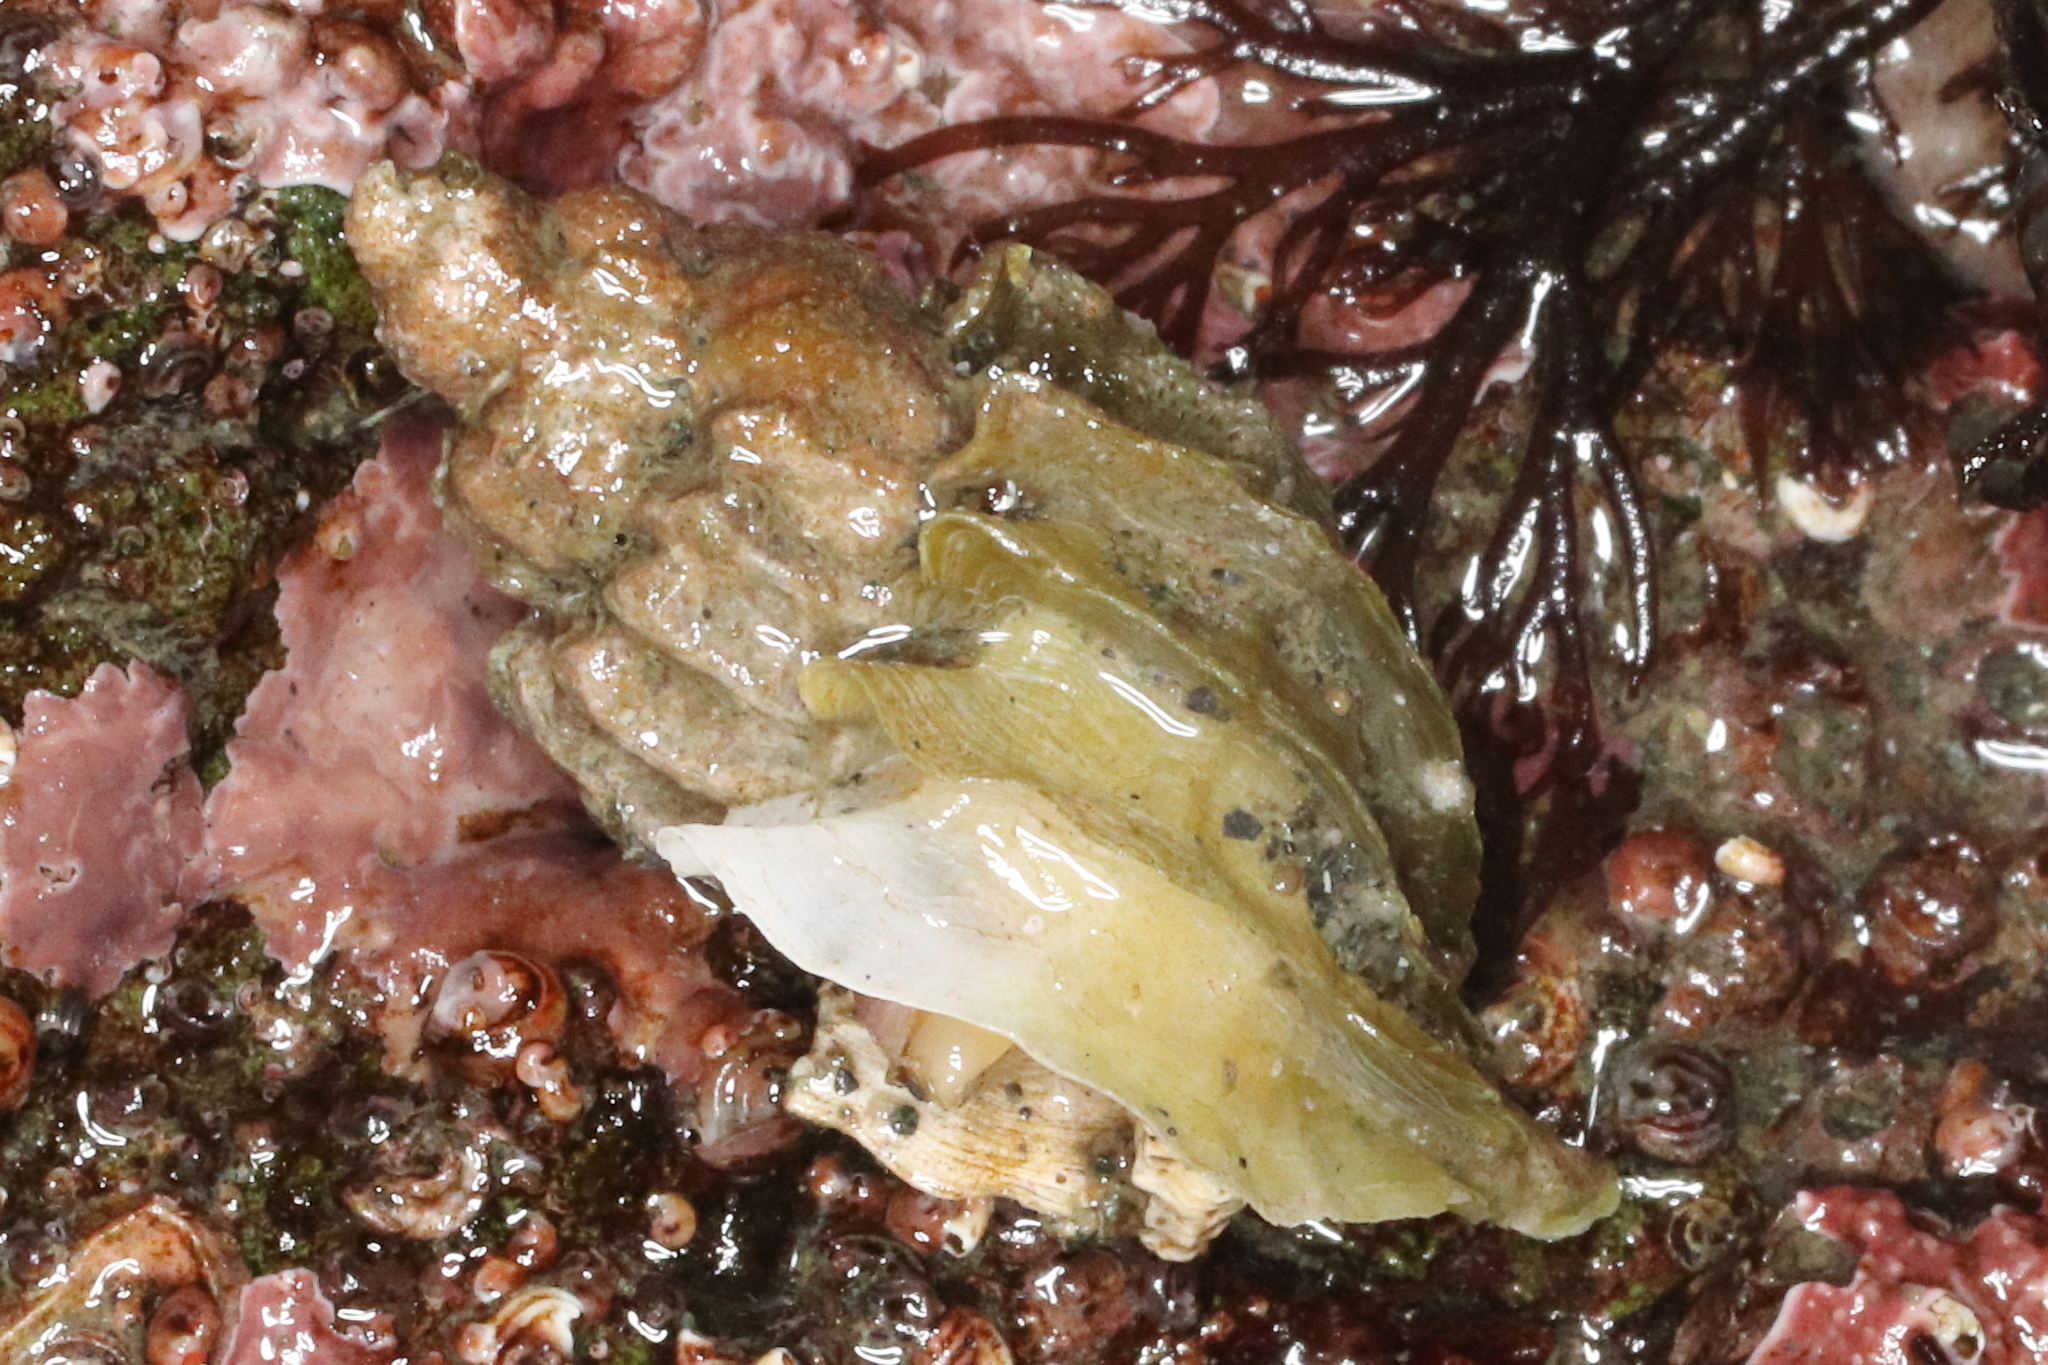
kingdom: Animalia
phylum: Mollusca
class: Gastropoda
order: Neogastropoda
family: Muricidae
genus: Scabrotrophon
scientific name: Scabrotrophon stuarti
